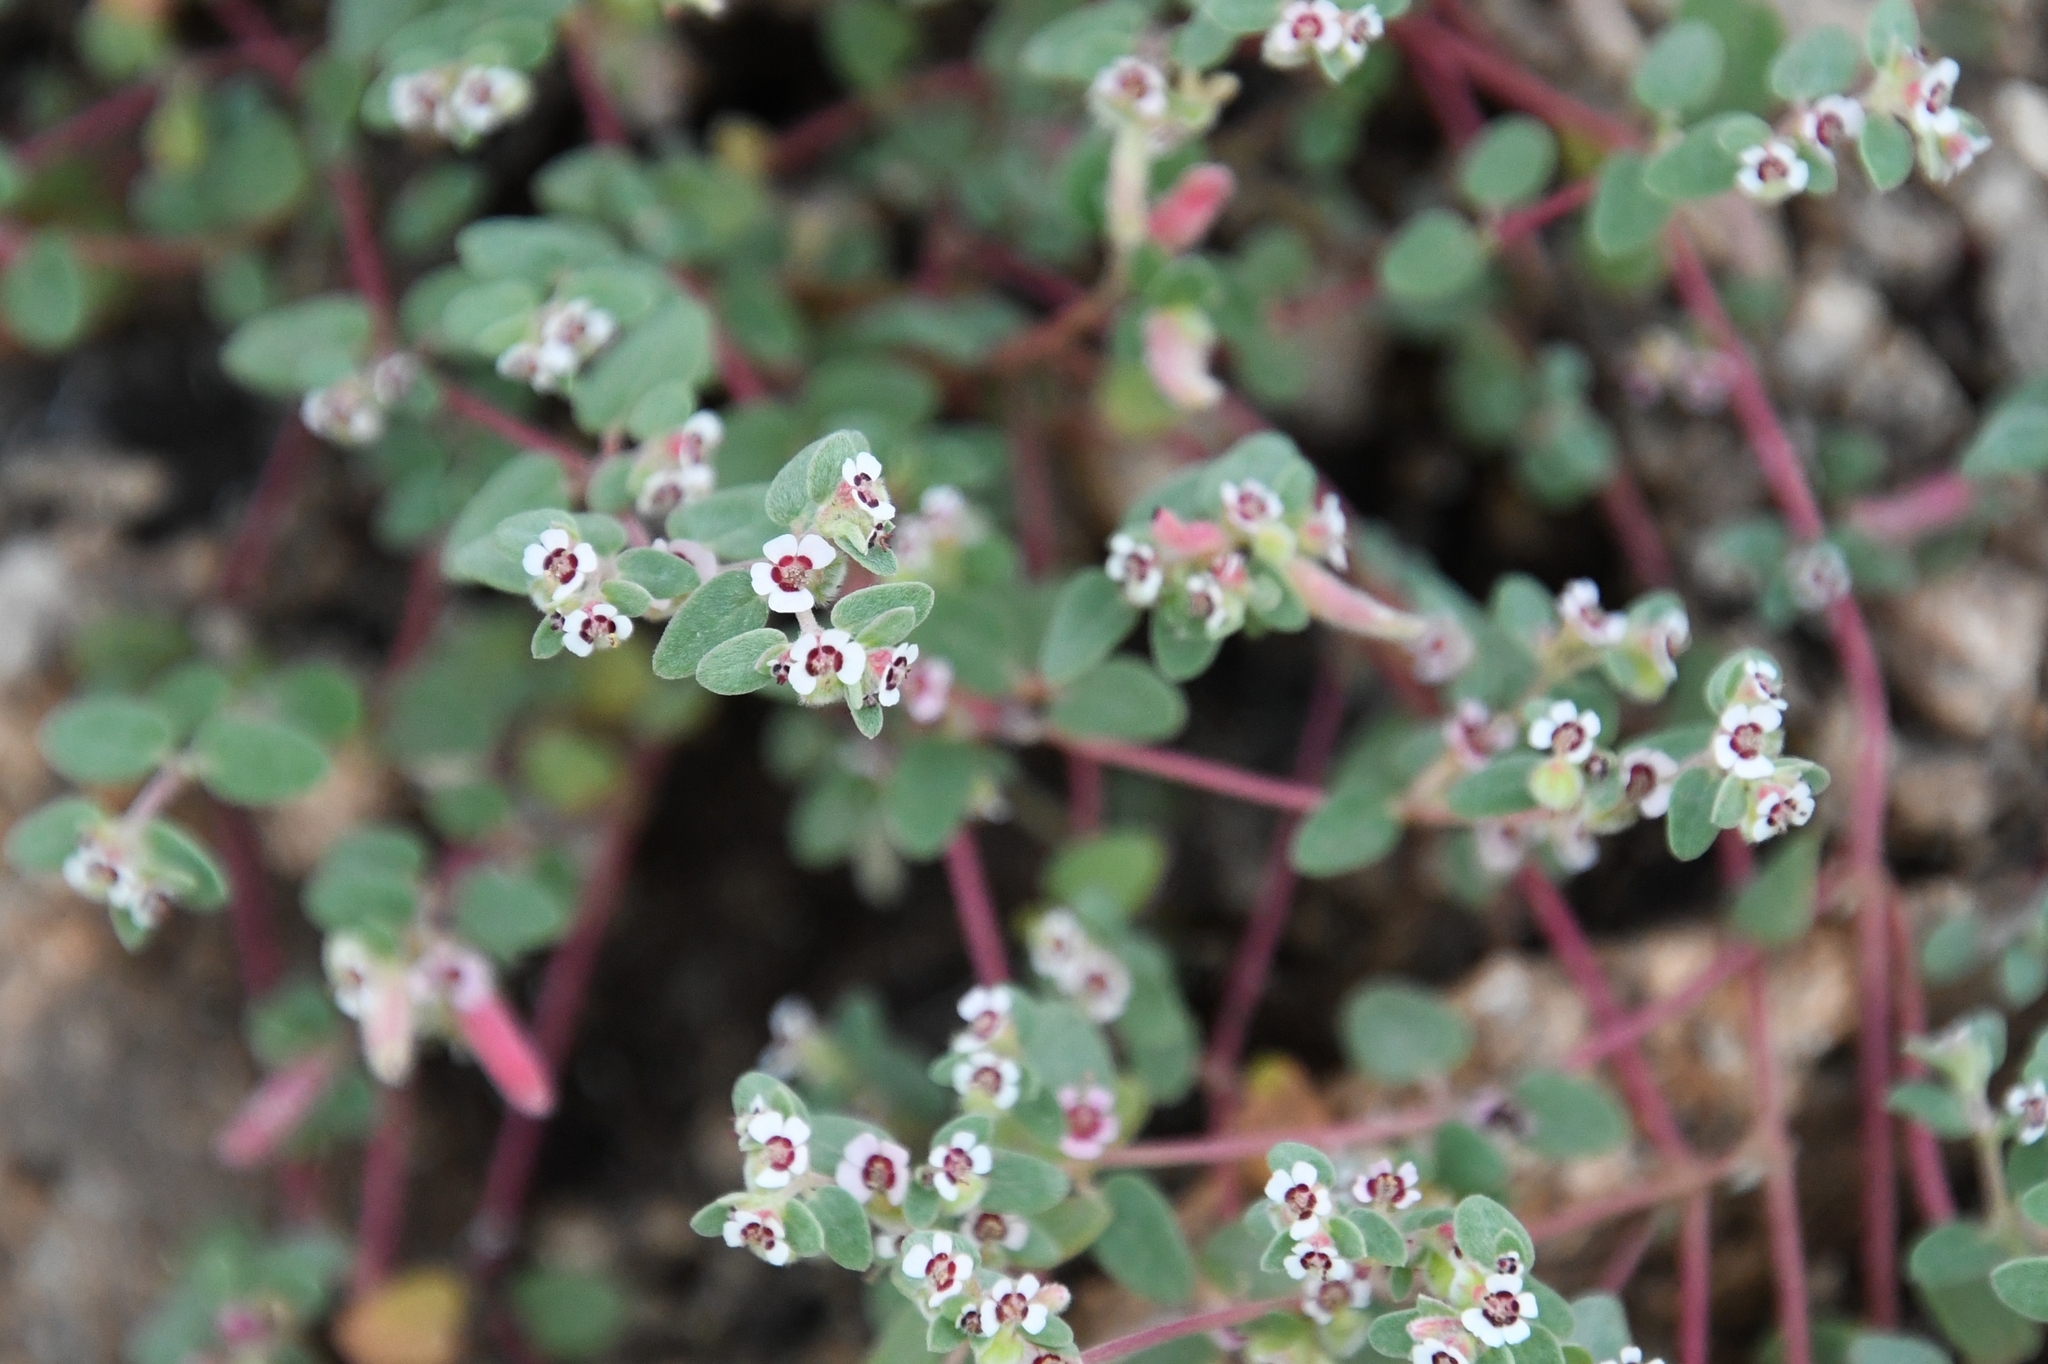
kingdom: Plantae
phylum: Tracheophyta
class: Magnoliopsida
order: Malpighiales
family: Euphorbiaceae
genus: Euphorbia
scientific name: Euphorbia melanadenia
